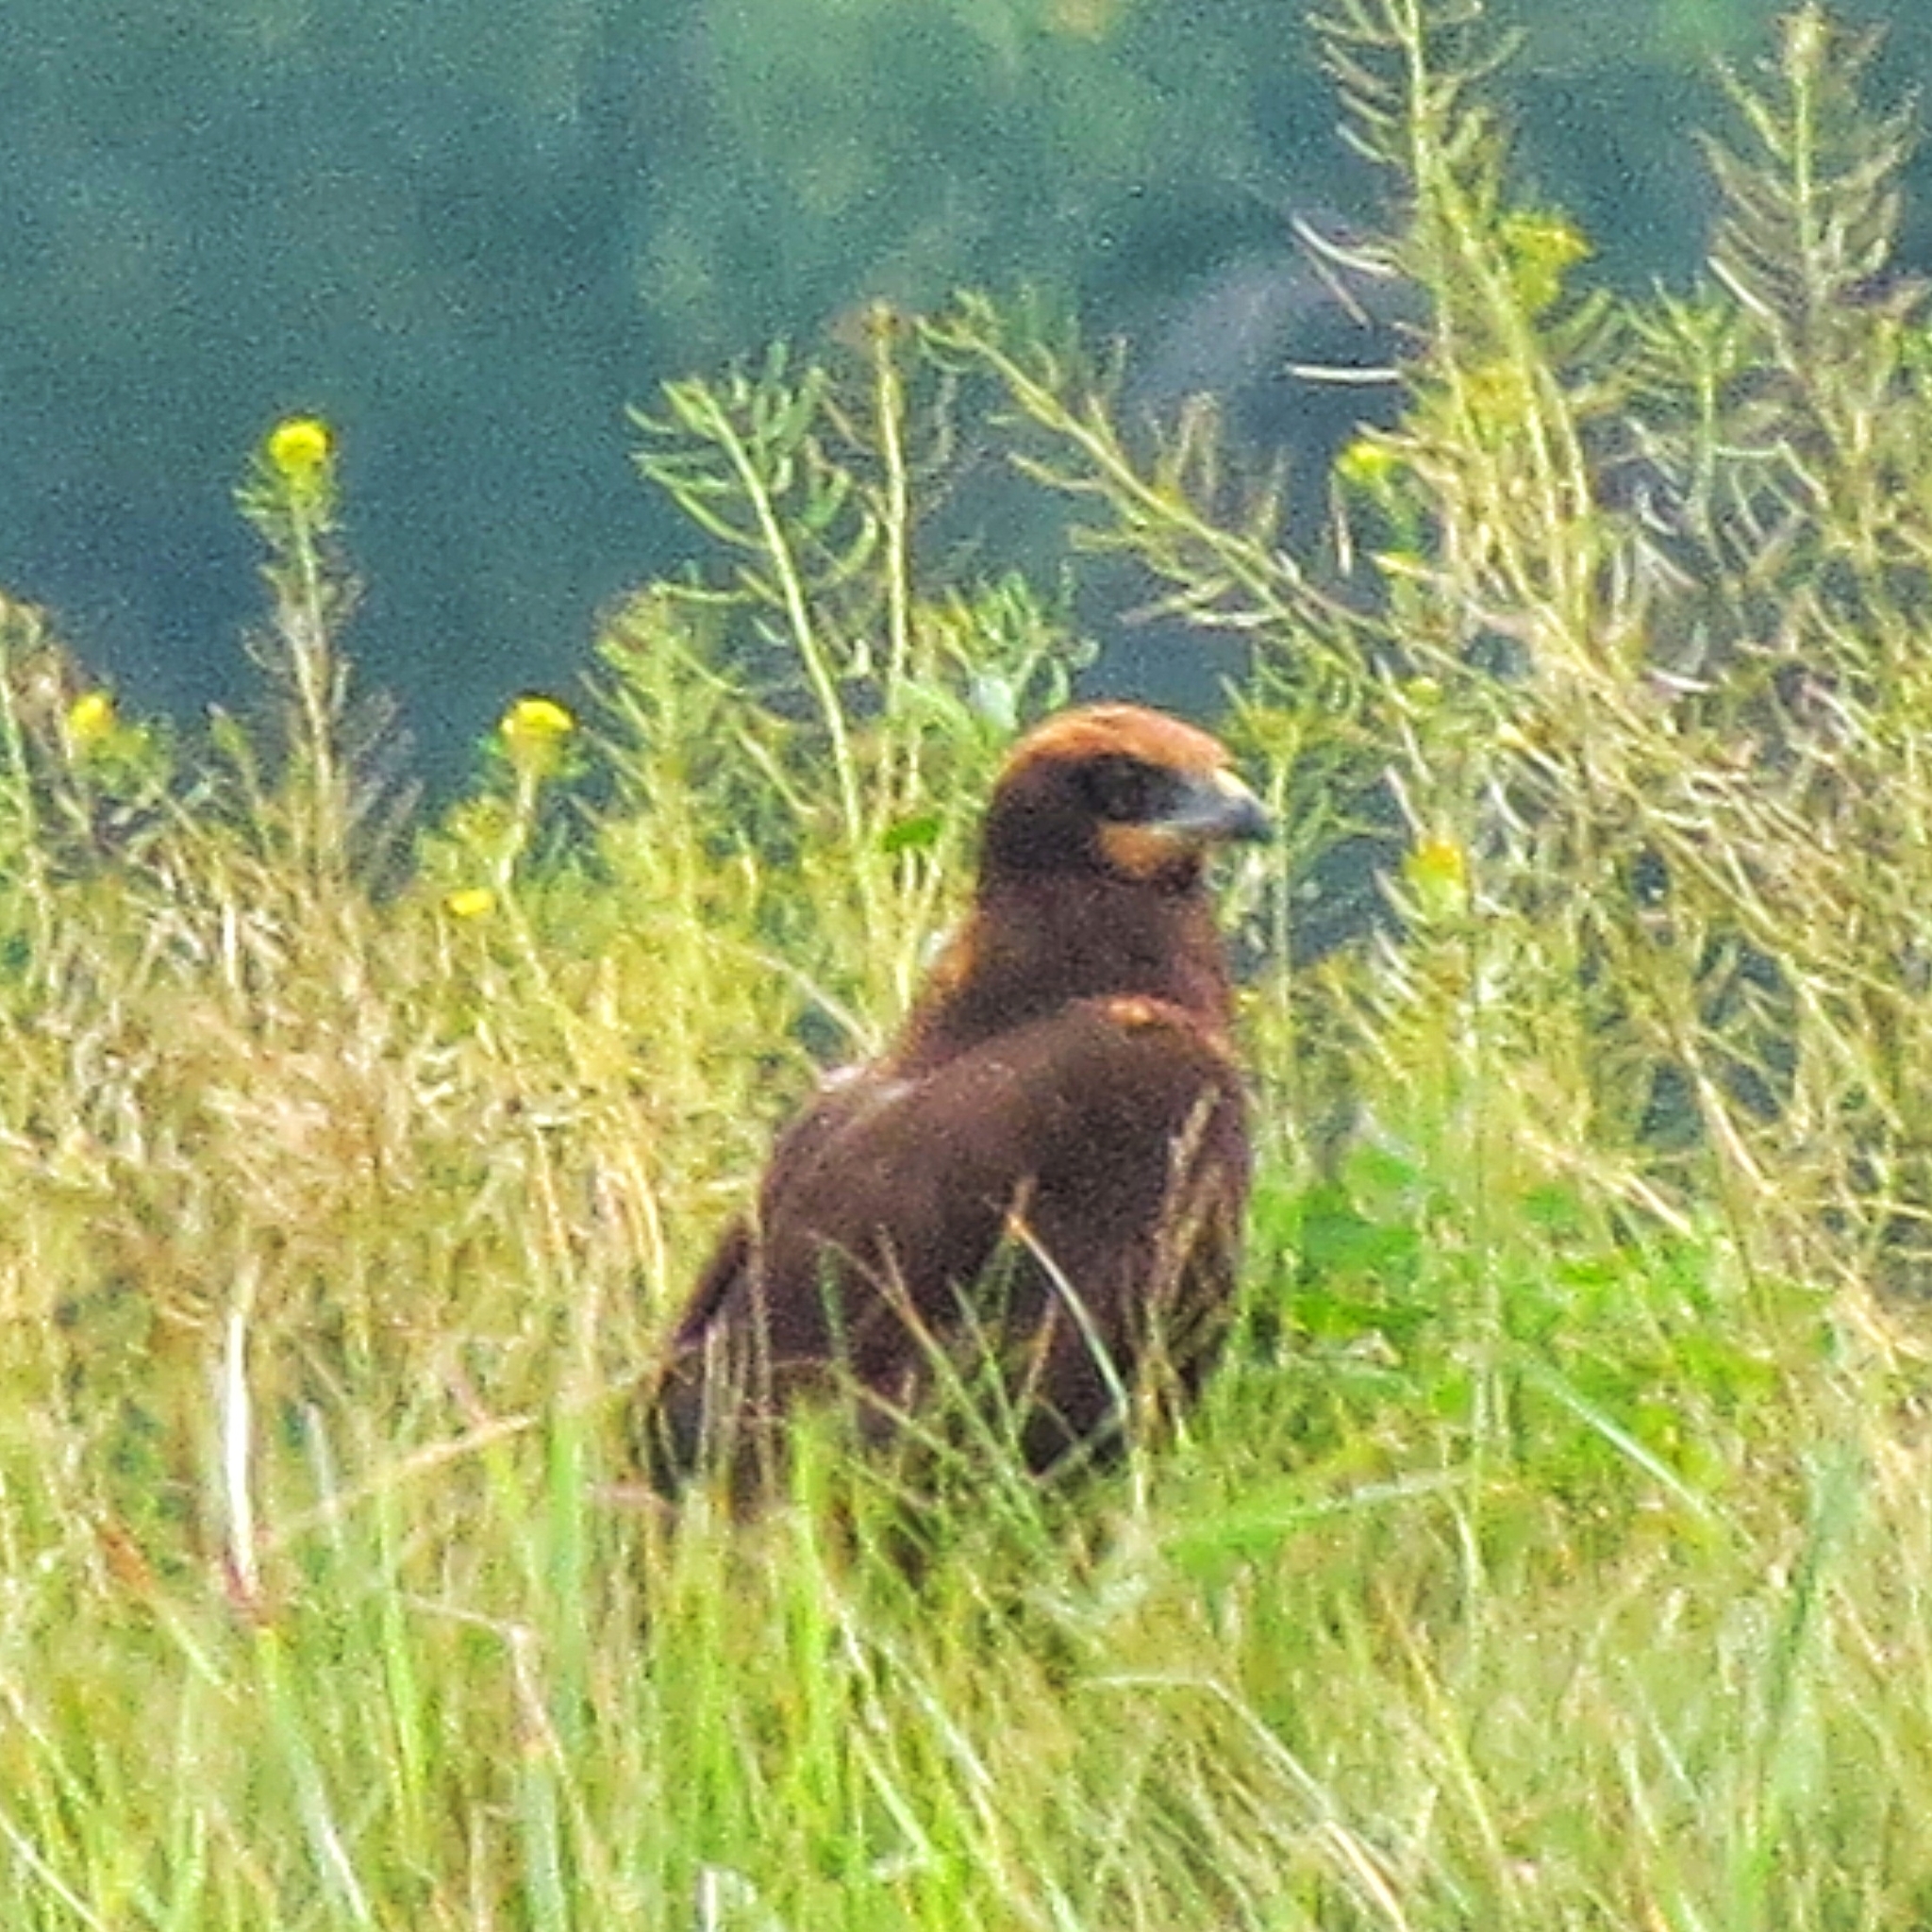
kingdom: Animalia
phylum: Chordata
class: Aves
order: Accipitriformes
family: Accipitridae
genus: Circus
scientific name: Circus aeruginosus
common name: Western marsh harrier
